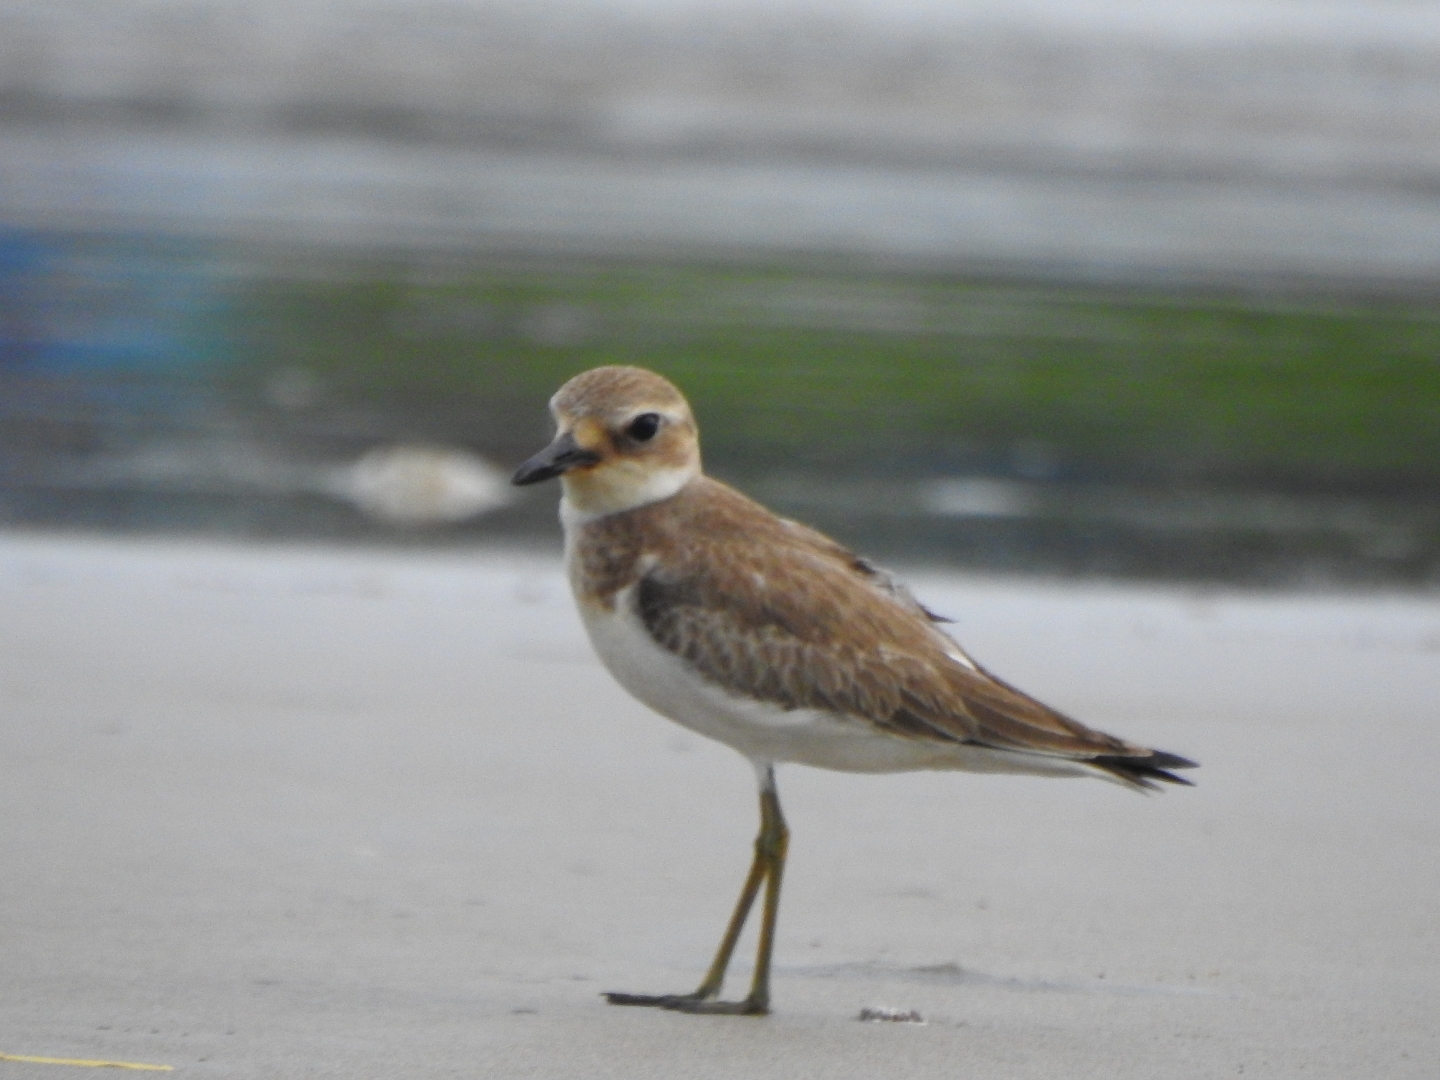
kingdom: Animalia
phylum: Chordata
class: Aves
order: Charadriiformes
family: Charadriidae
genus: Charadrius
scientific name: Charadrius leschenaultii
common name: Greater sand plover
